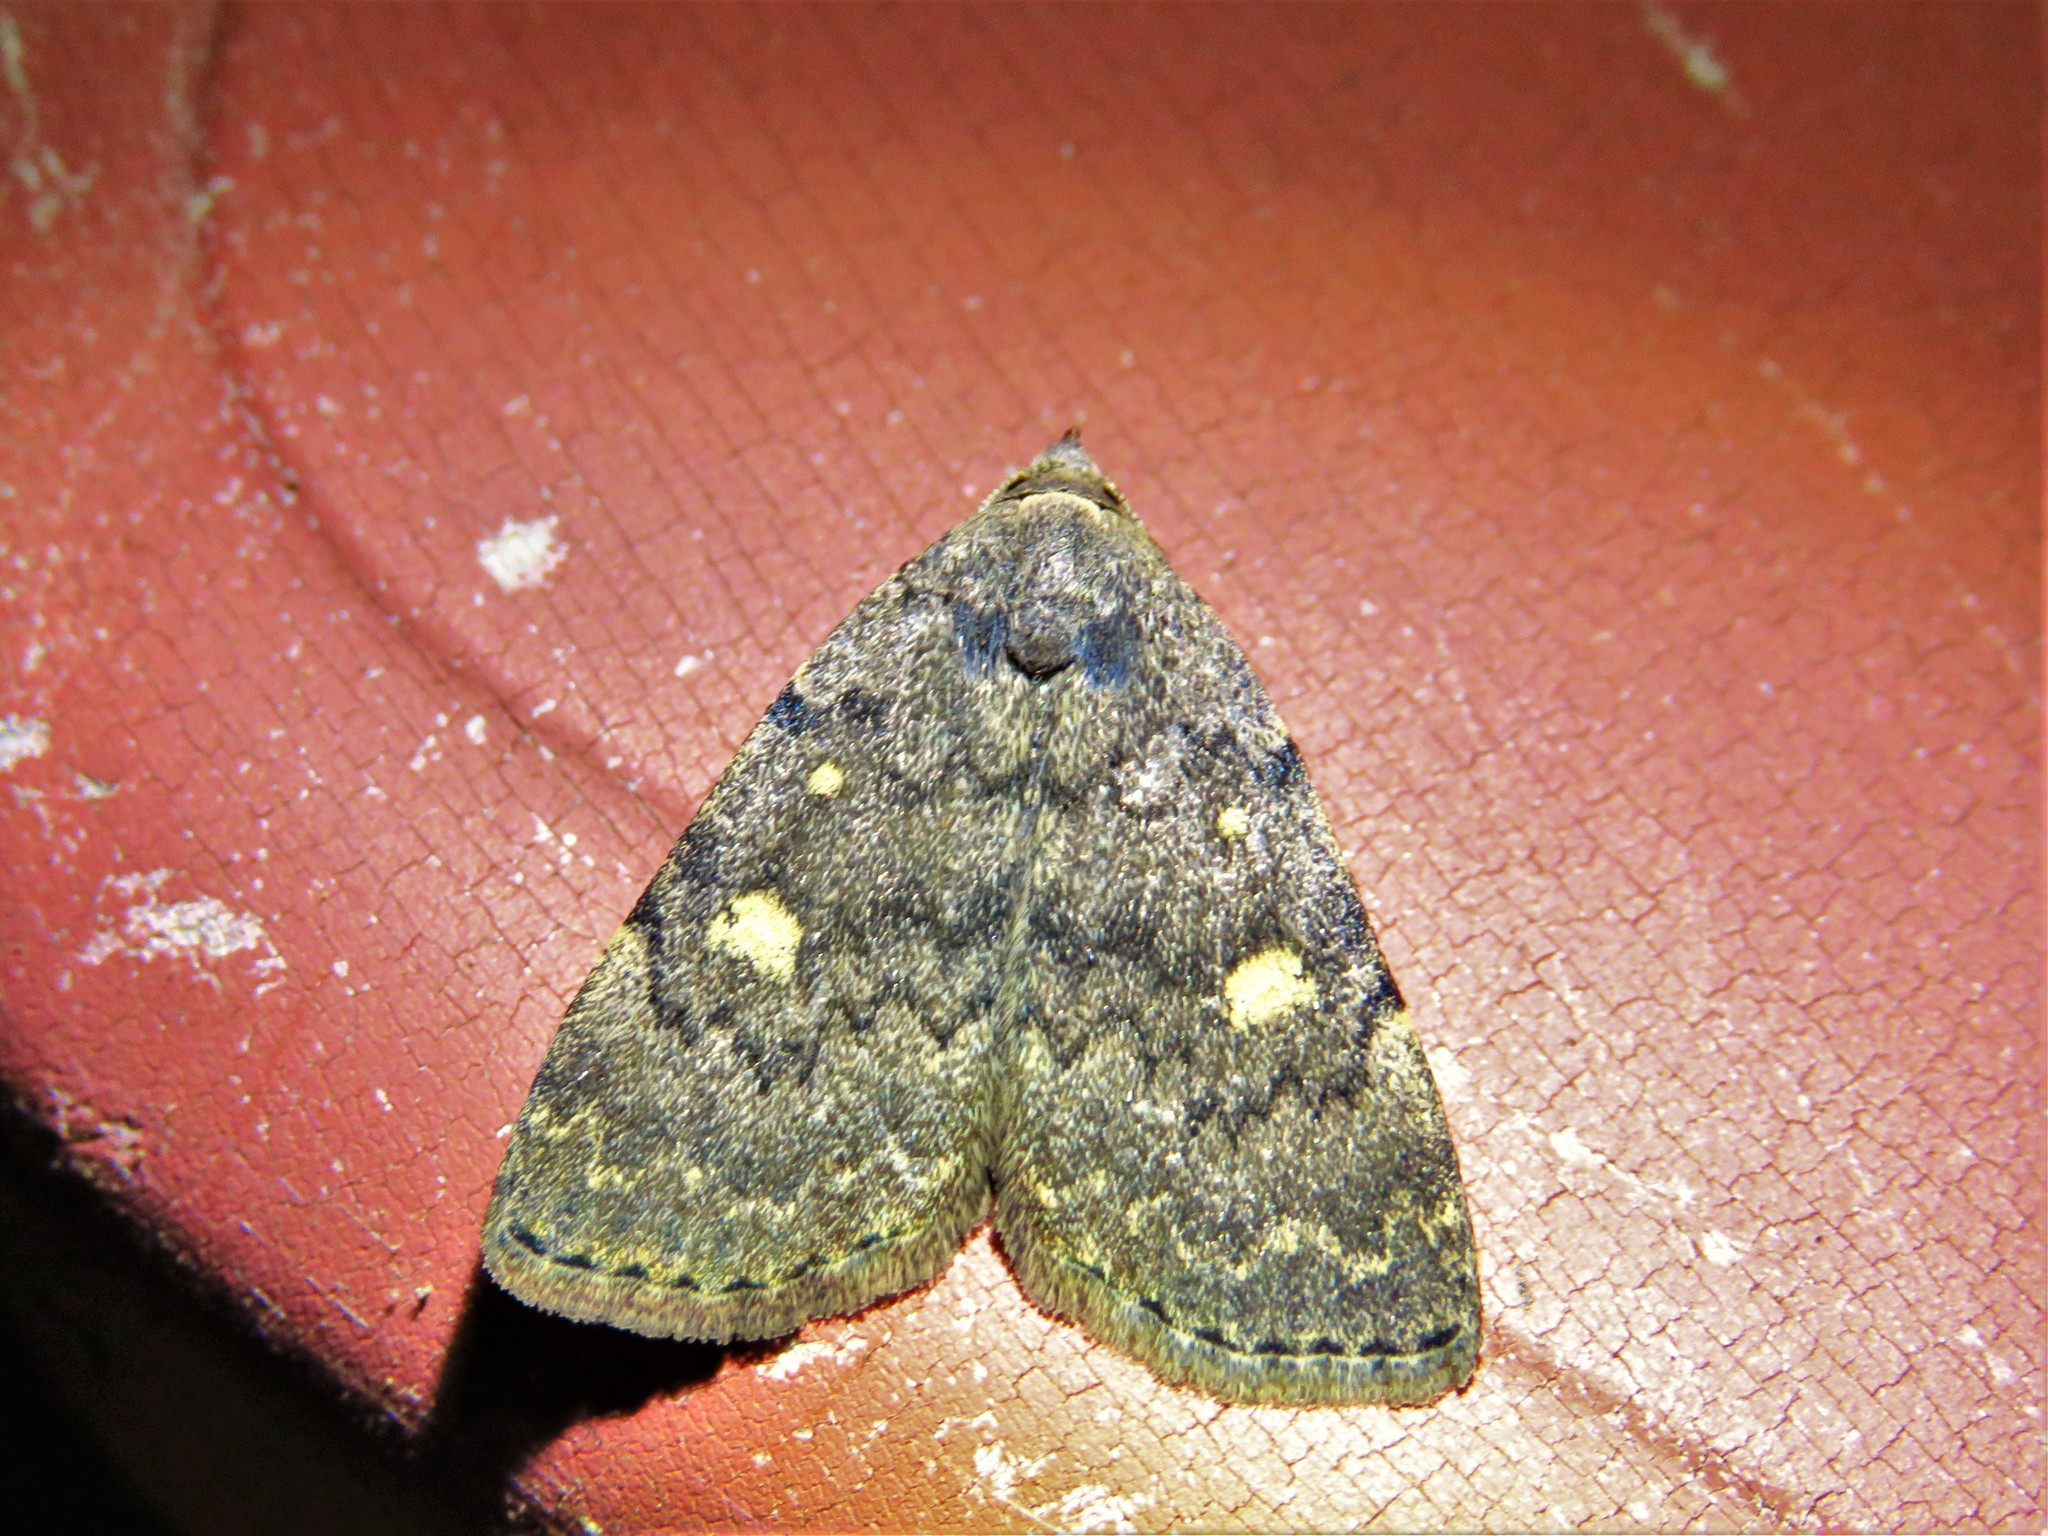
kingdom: Animalia
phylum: Arthropoda
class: Insecta
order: Lepidoptera
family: Erebidae
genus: Idia
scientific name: Idia aemula
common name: Common idia moth
